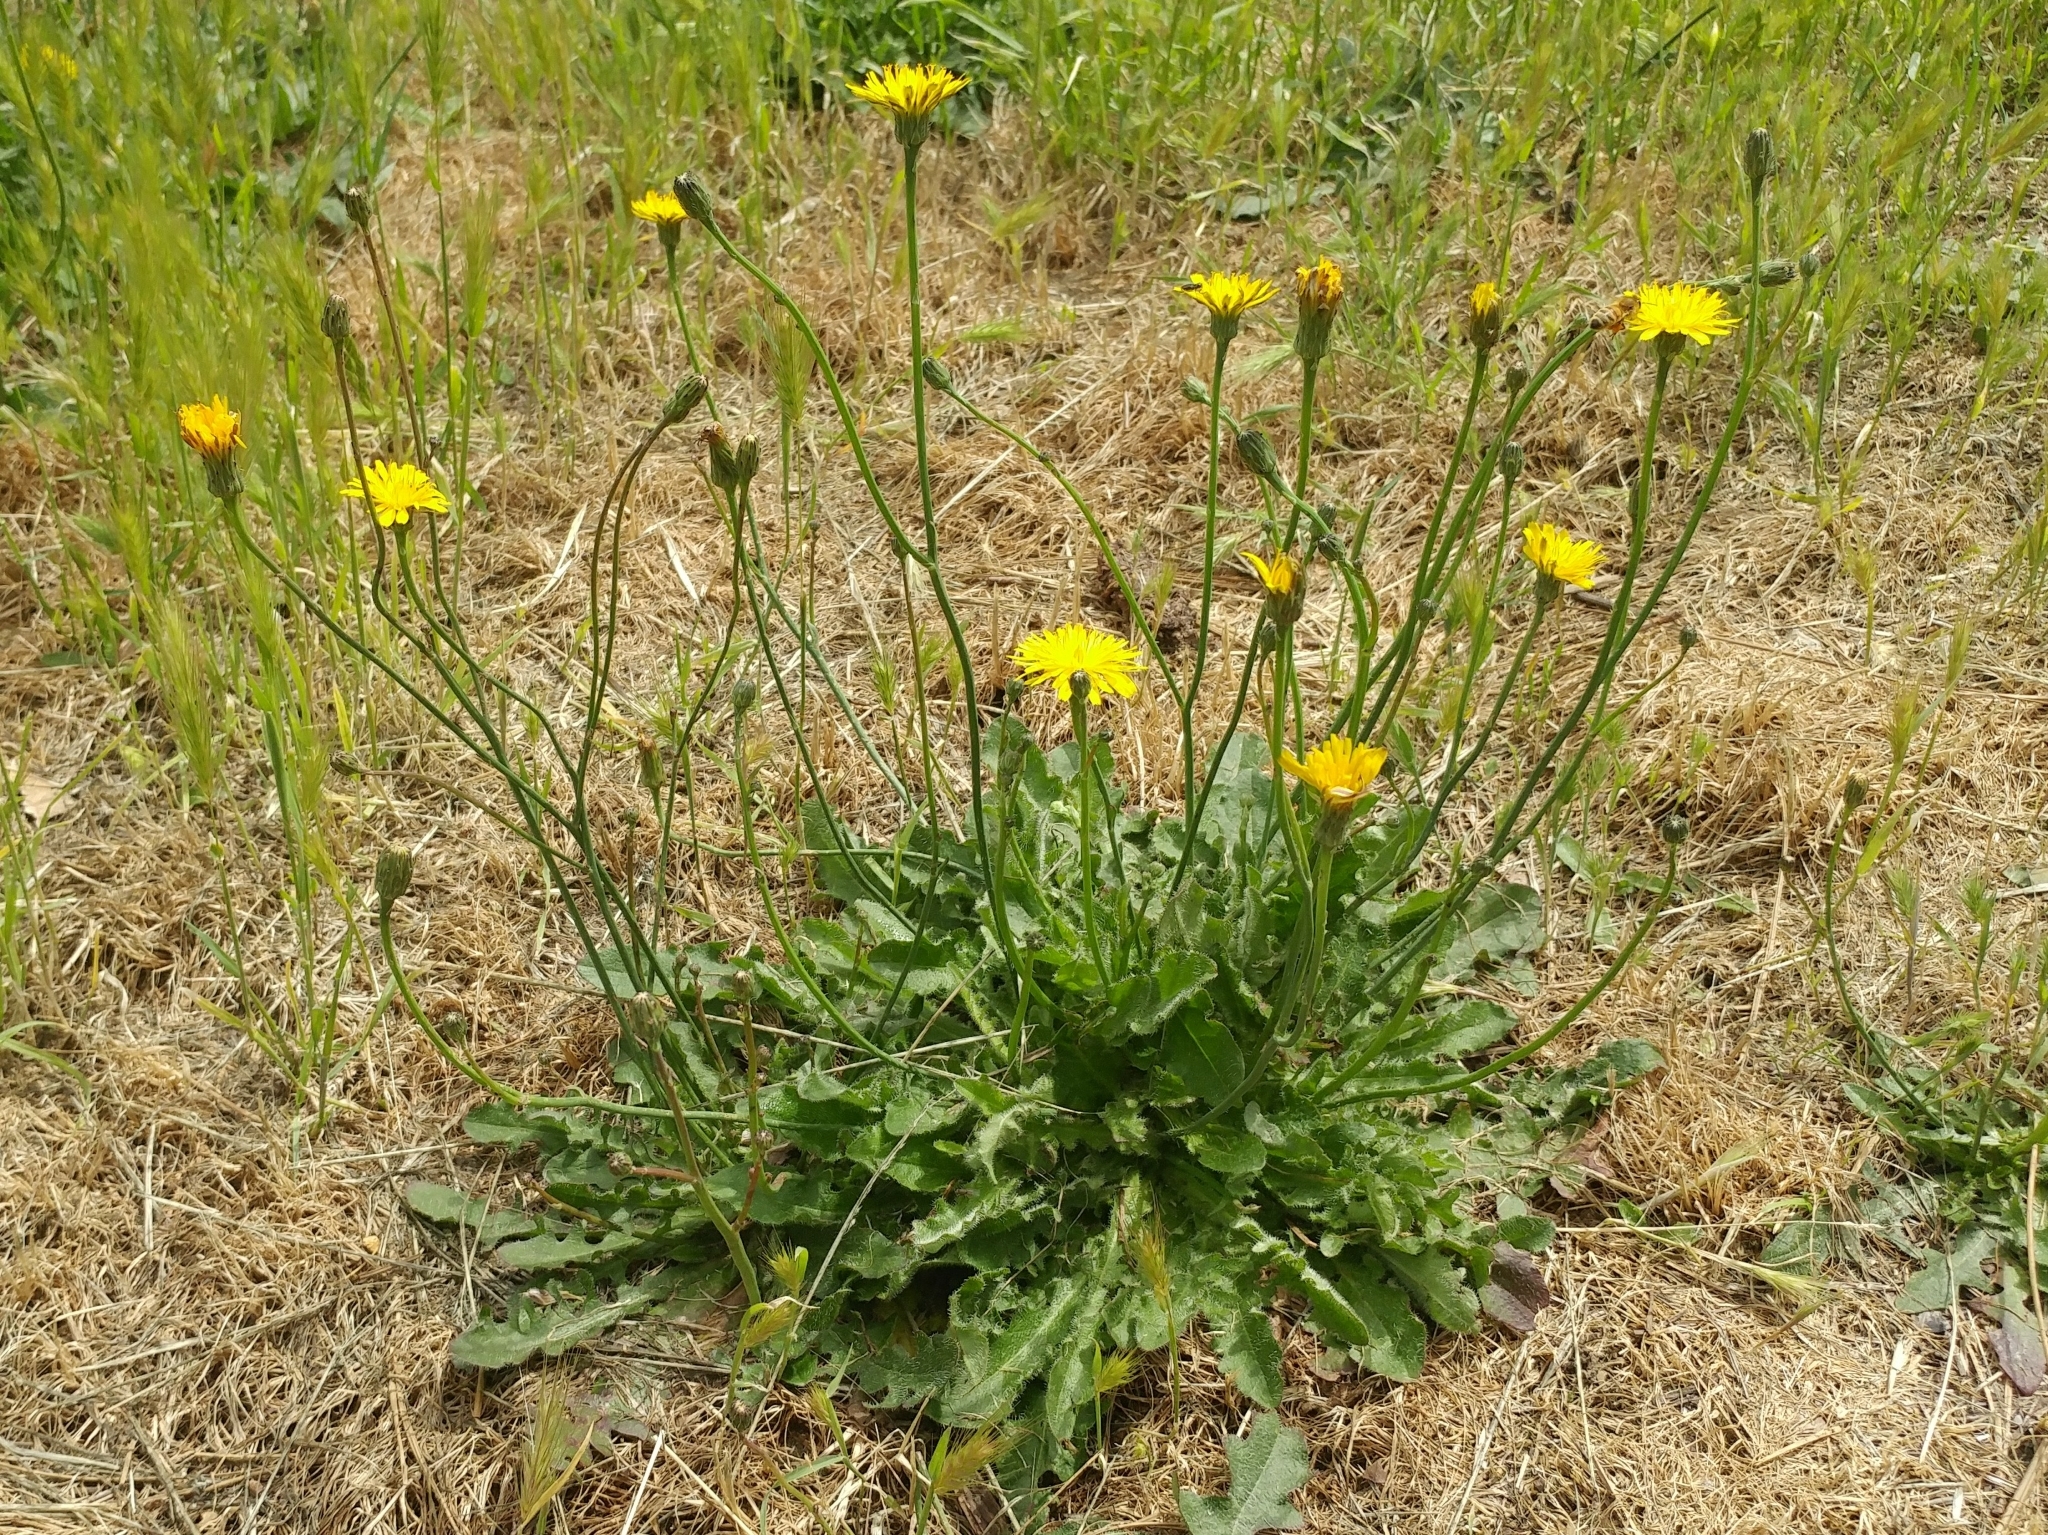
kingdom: Plantae
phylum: Tracheophyta
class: Magnoliopsida
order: Asterales
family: Asteraceae
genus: Hypochaeris
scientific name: Hypochaeris radicata
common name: Flatweed
